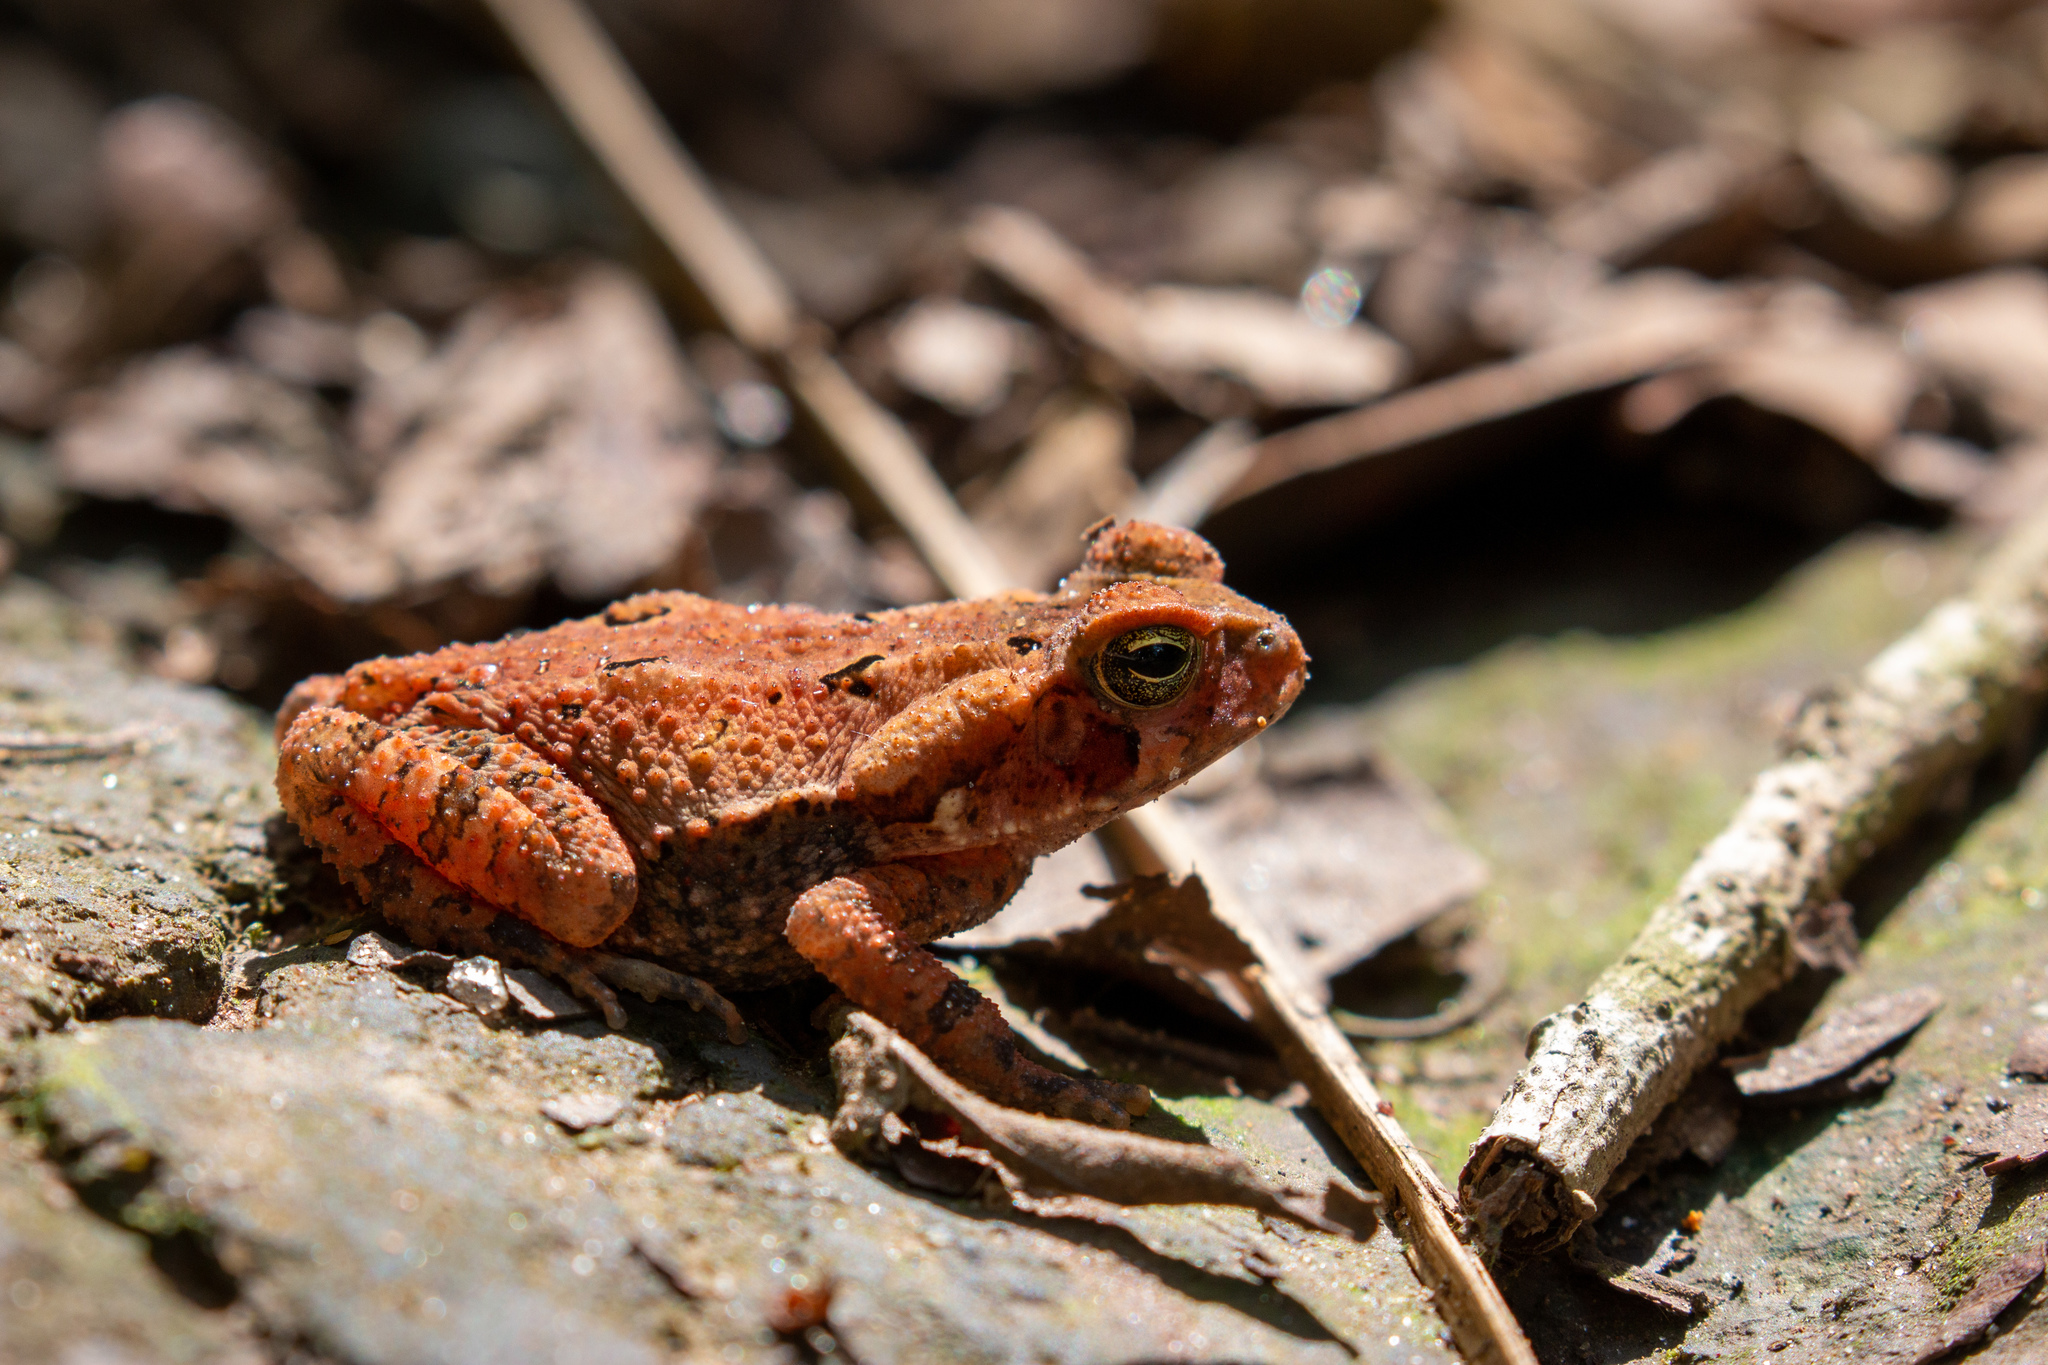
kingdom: Animalia
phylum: Chordata
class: Amphibia
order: Anura
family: Bufonidae
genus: Rhinella
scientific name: Rhinella crucifer
